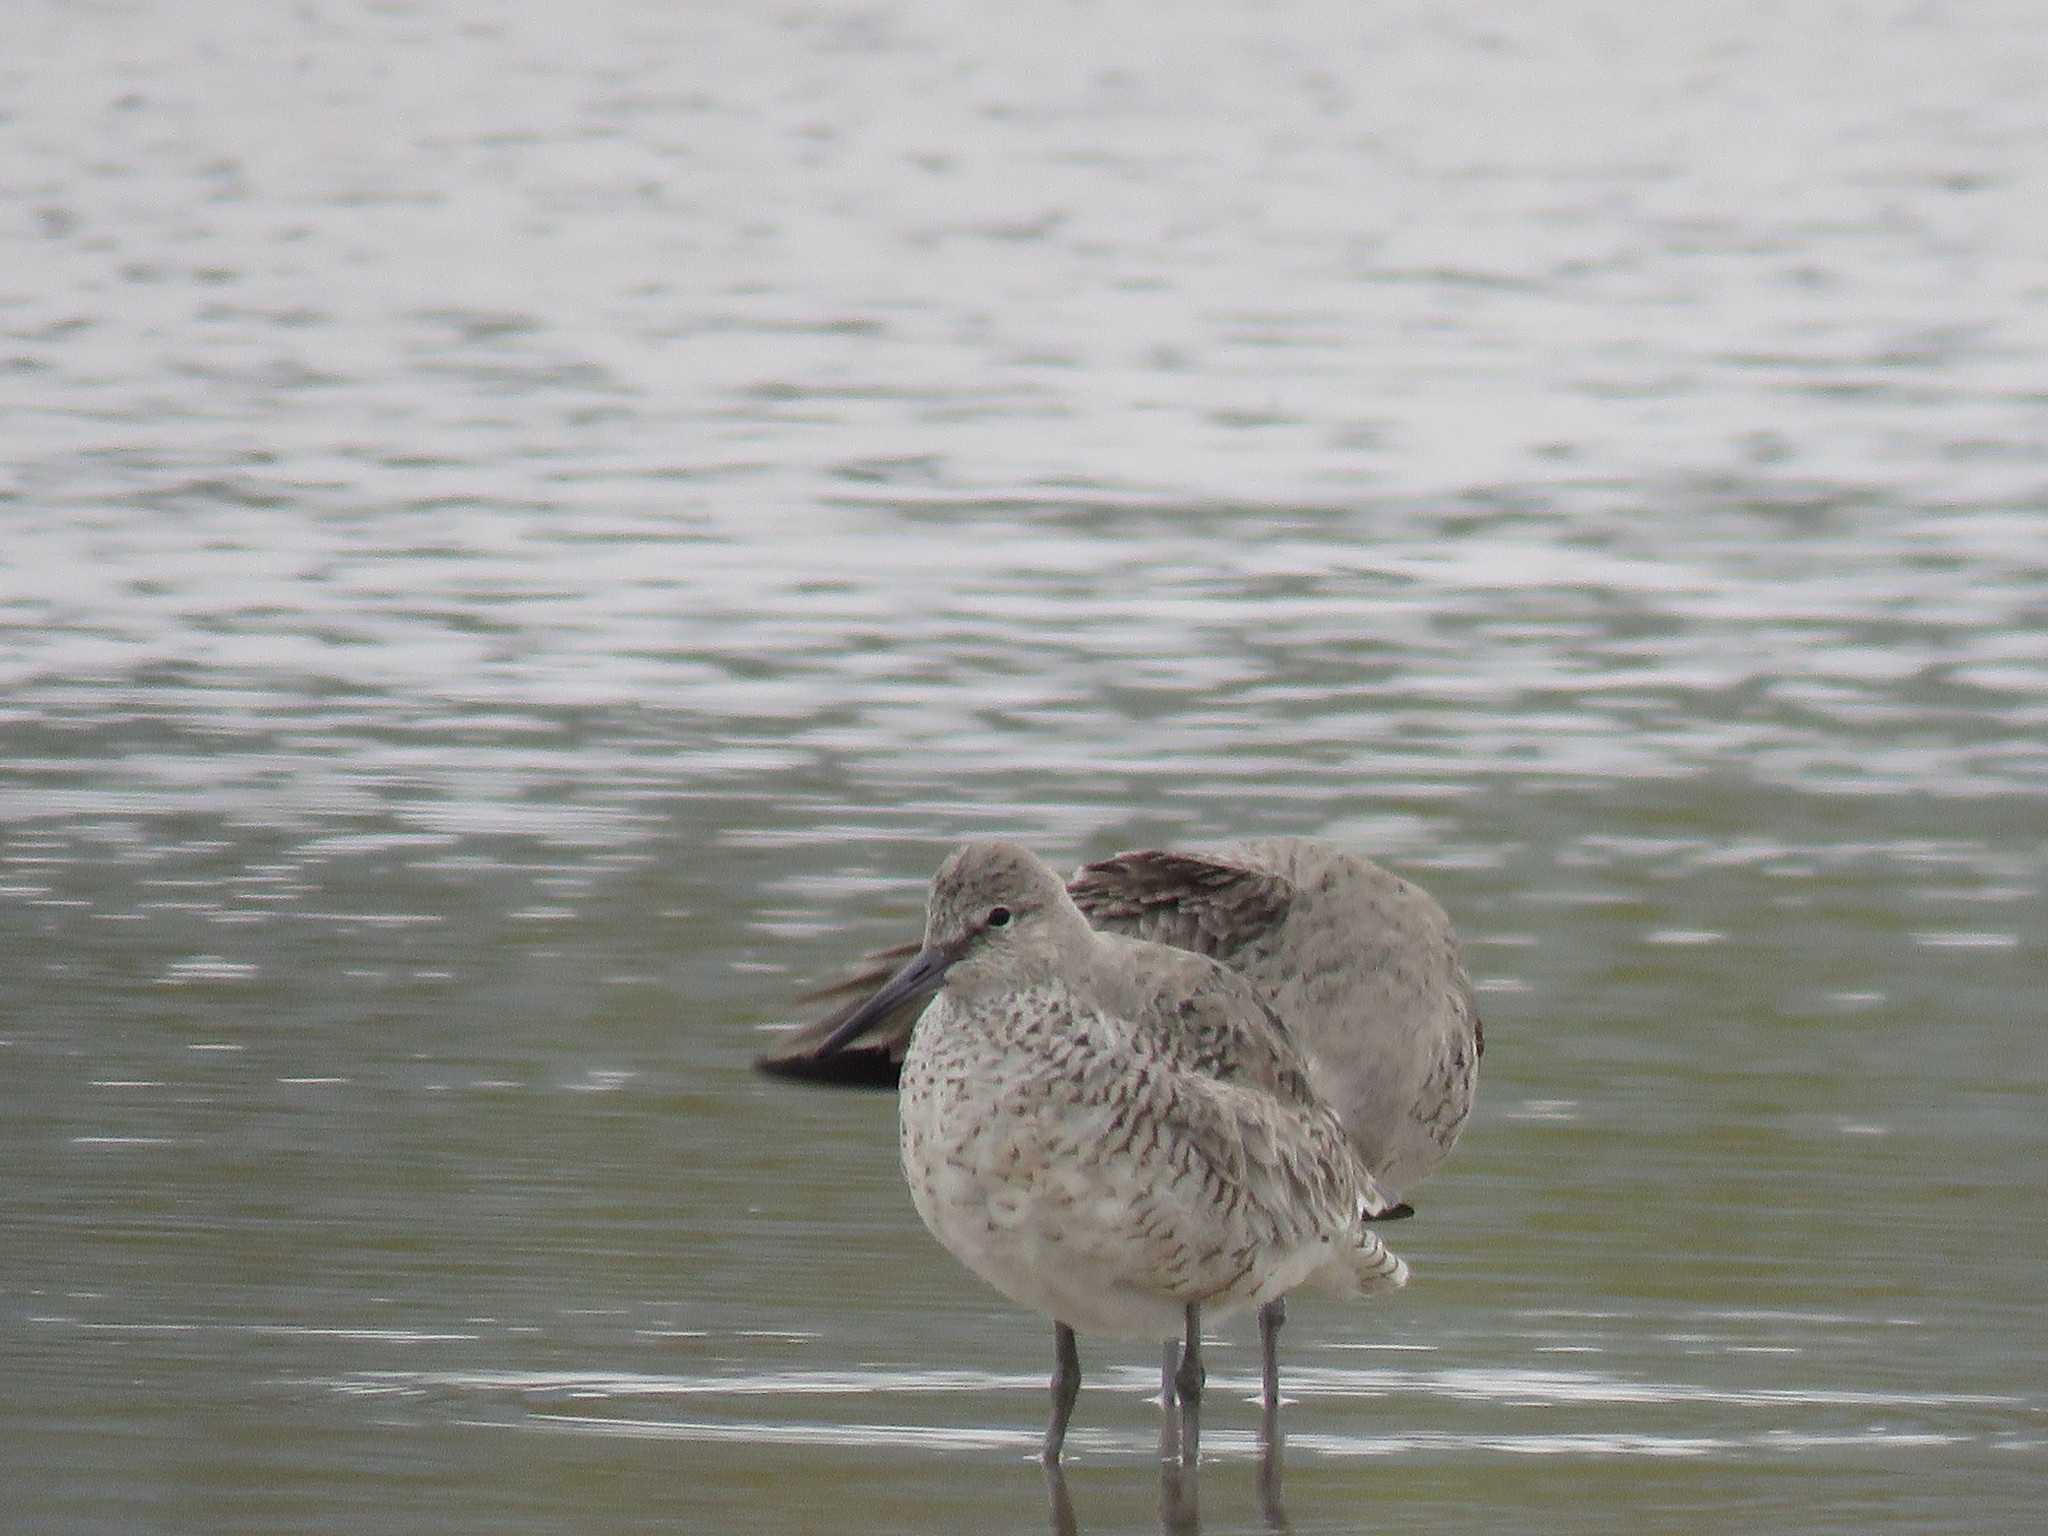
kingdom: Animalia
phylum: Chordata
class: Aves
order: Charadriiformes
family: Scolopacidae
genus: Tringa
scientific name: Tringa semipalmata
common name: Willet
